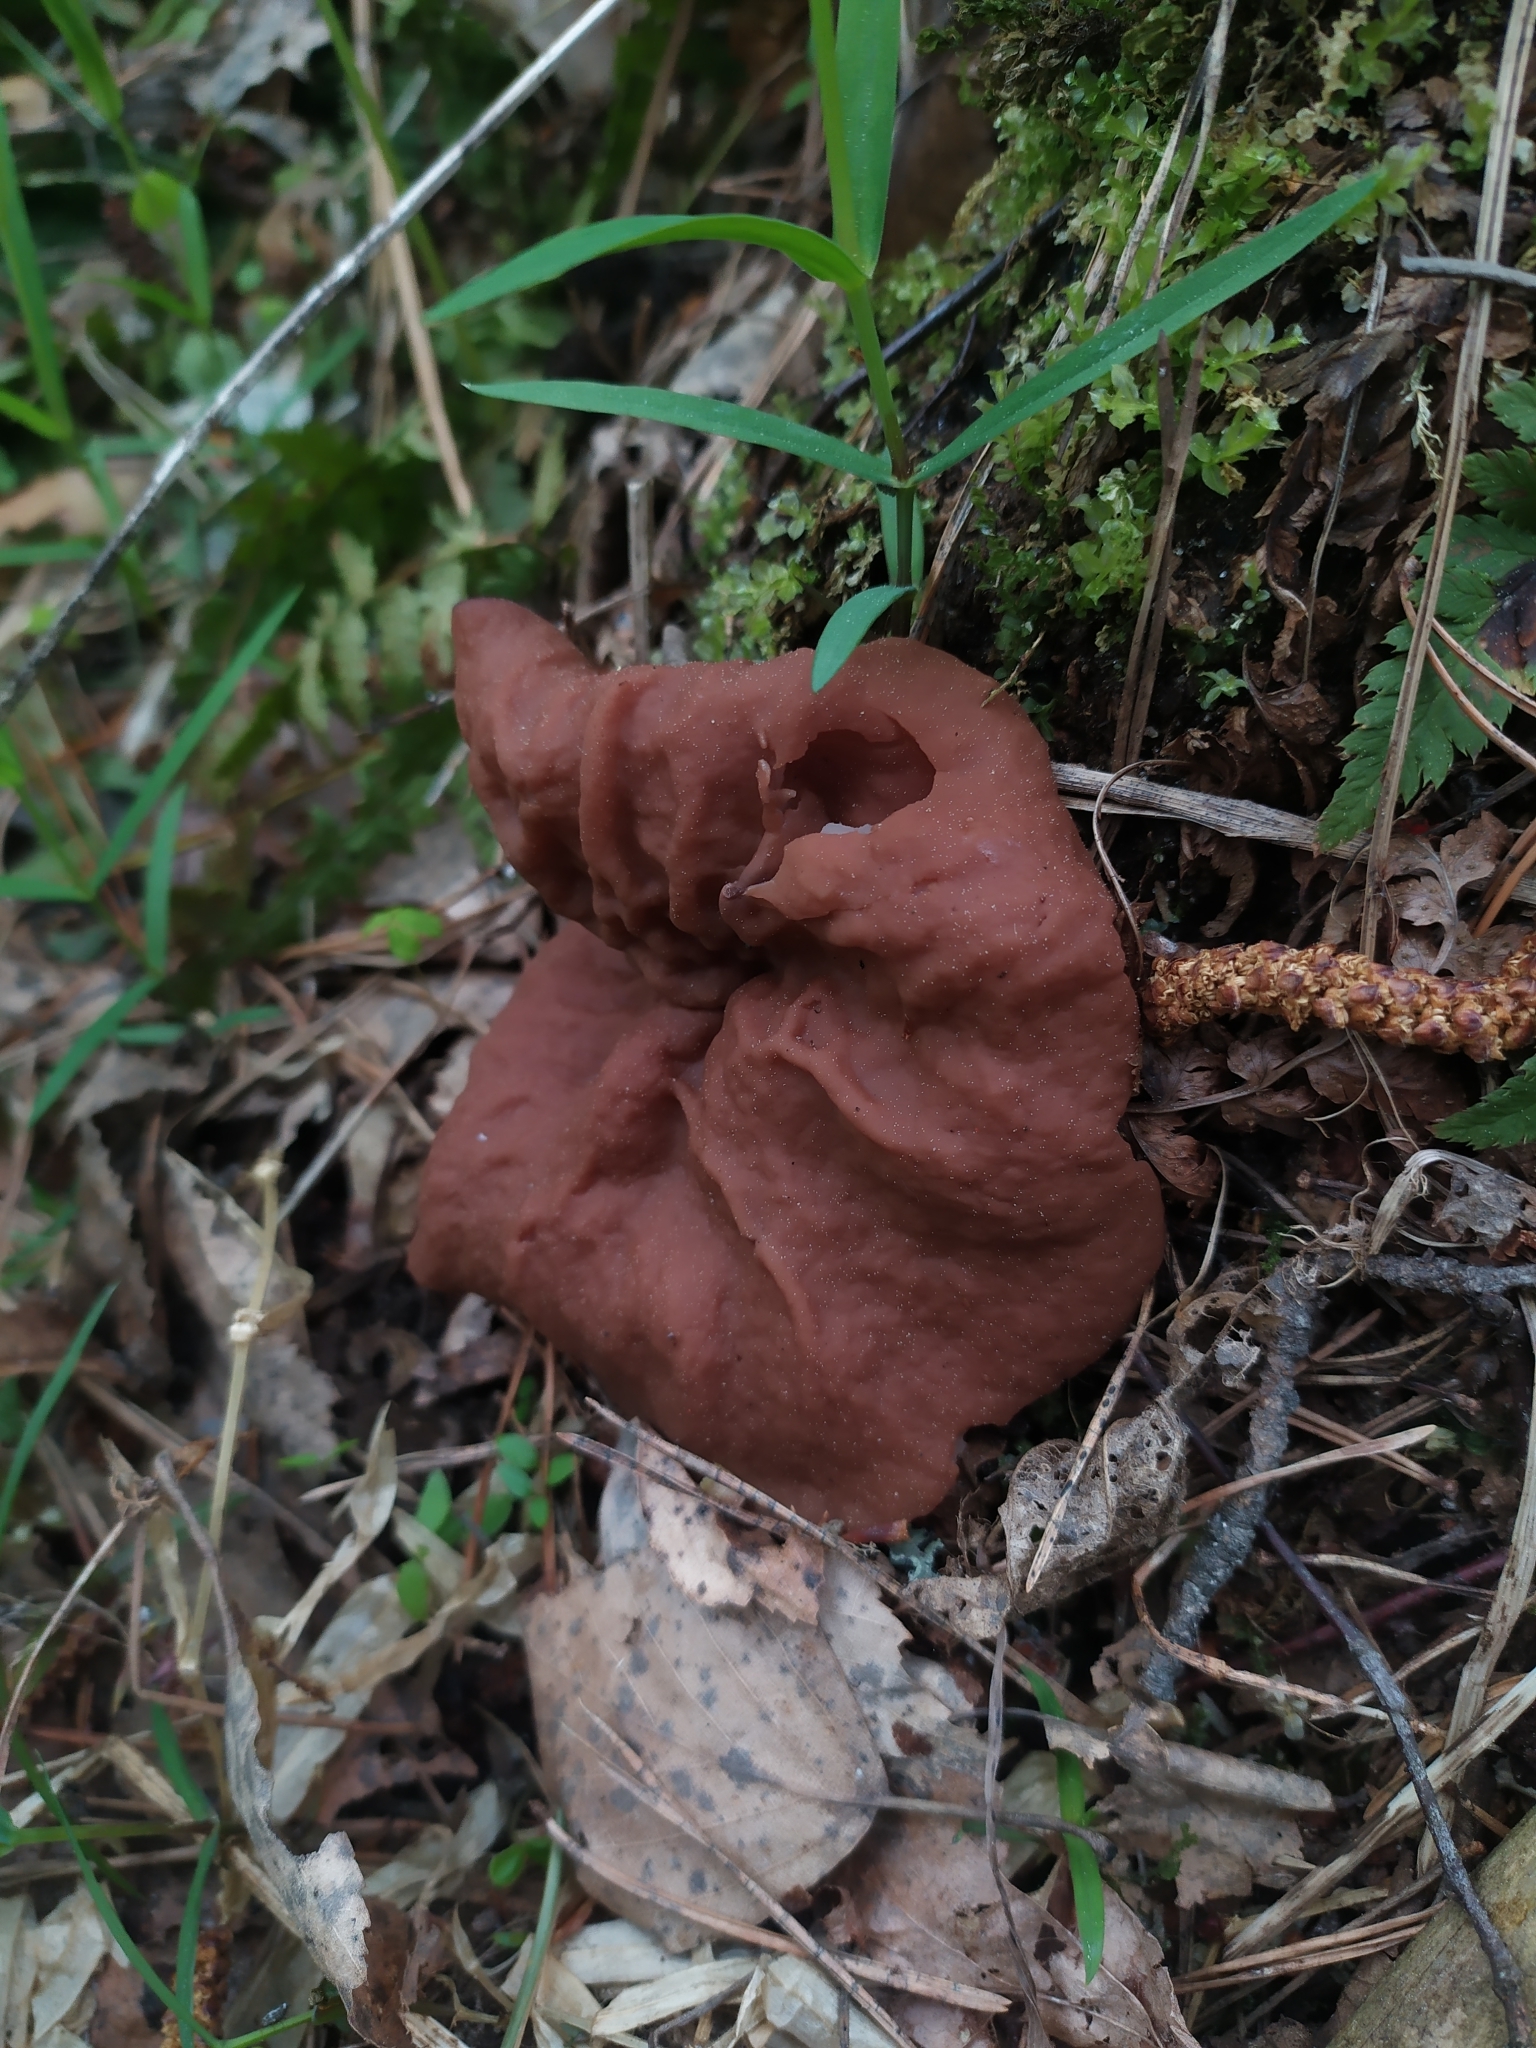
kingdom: Fungi
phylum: Ascomycota
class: Pezizomycetes
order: Pezizales
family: Discinaceae
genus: Discina
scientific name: Discina ancilis
